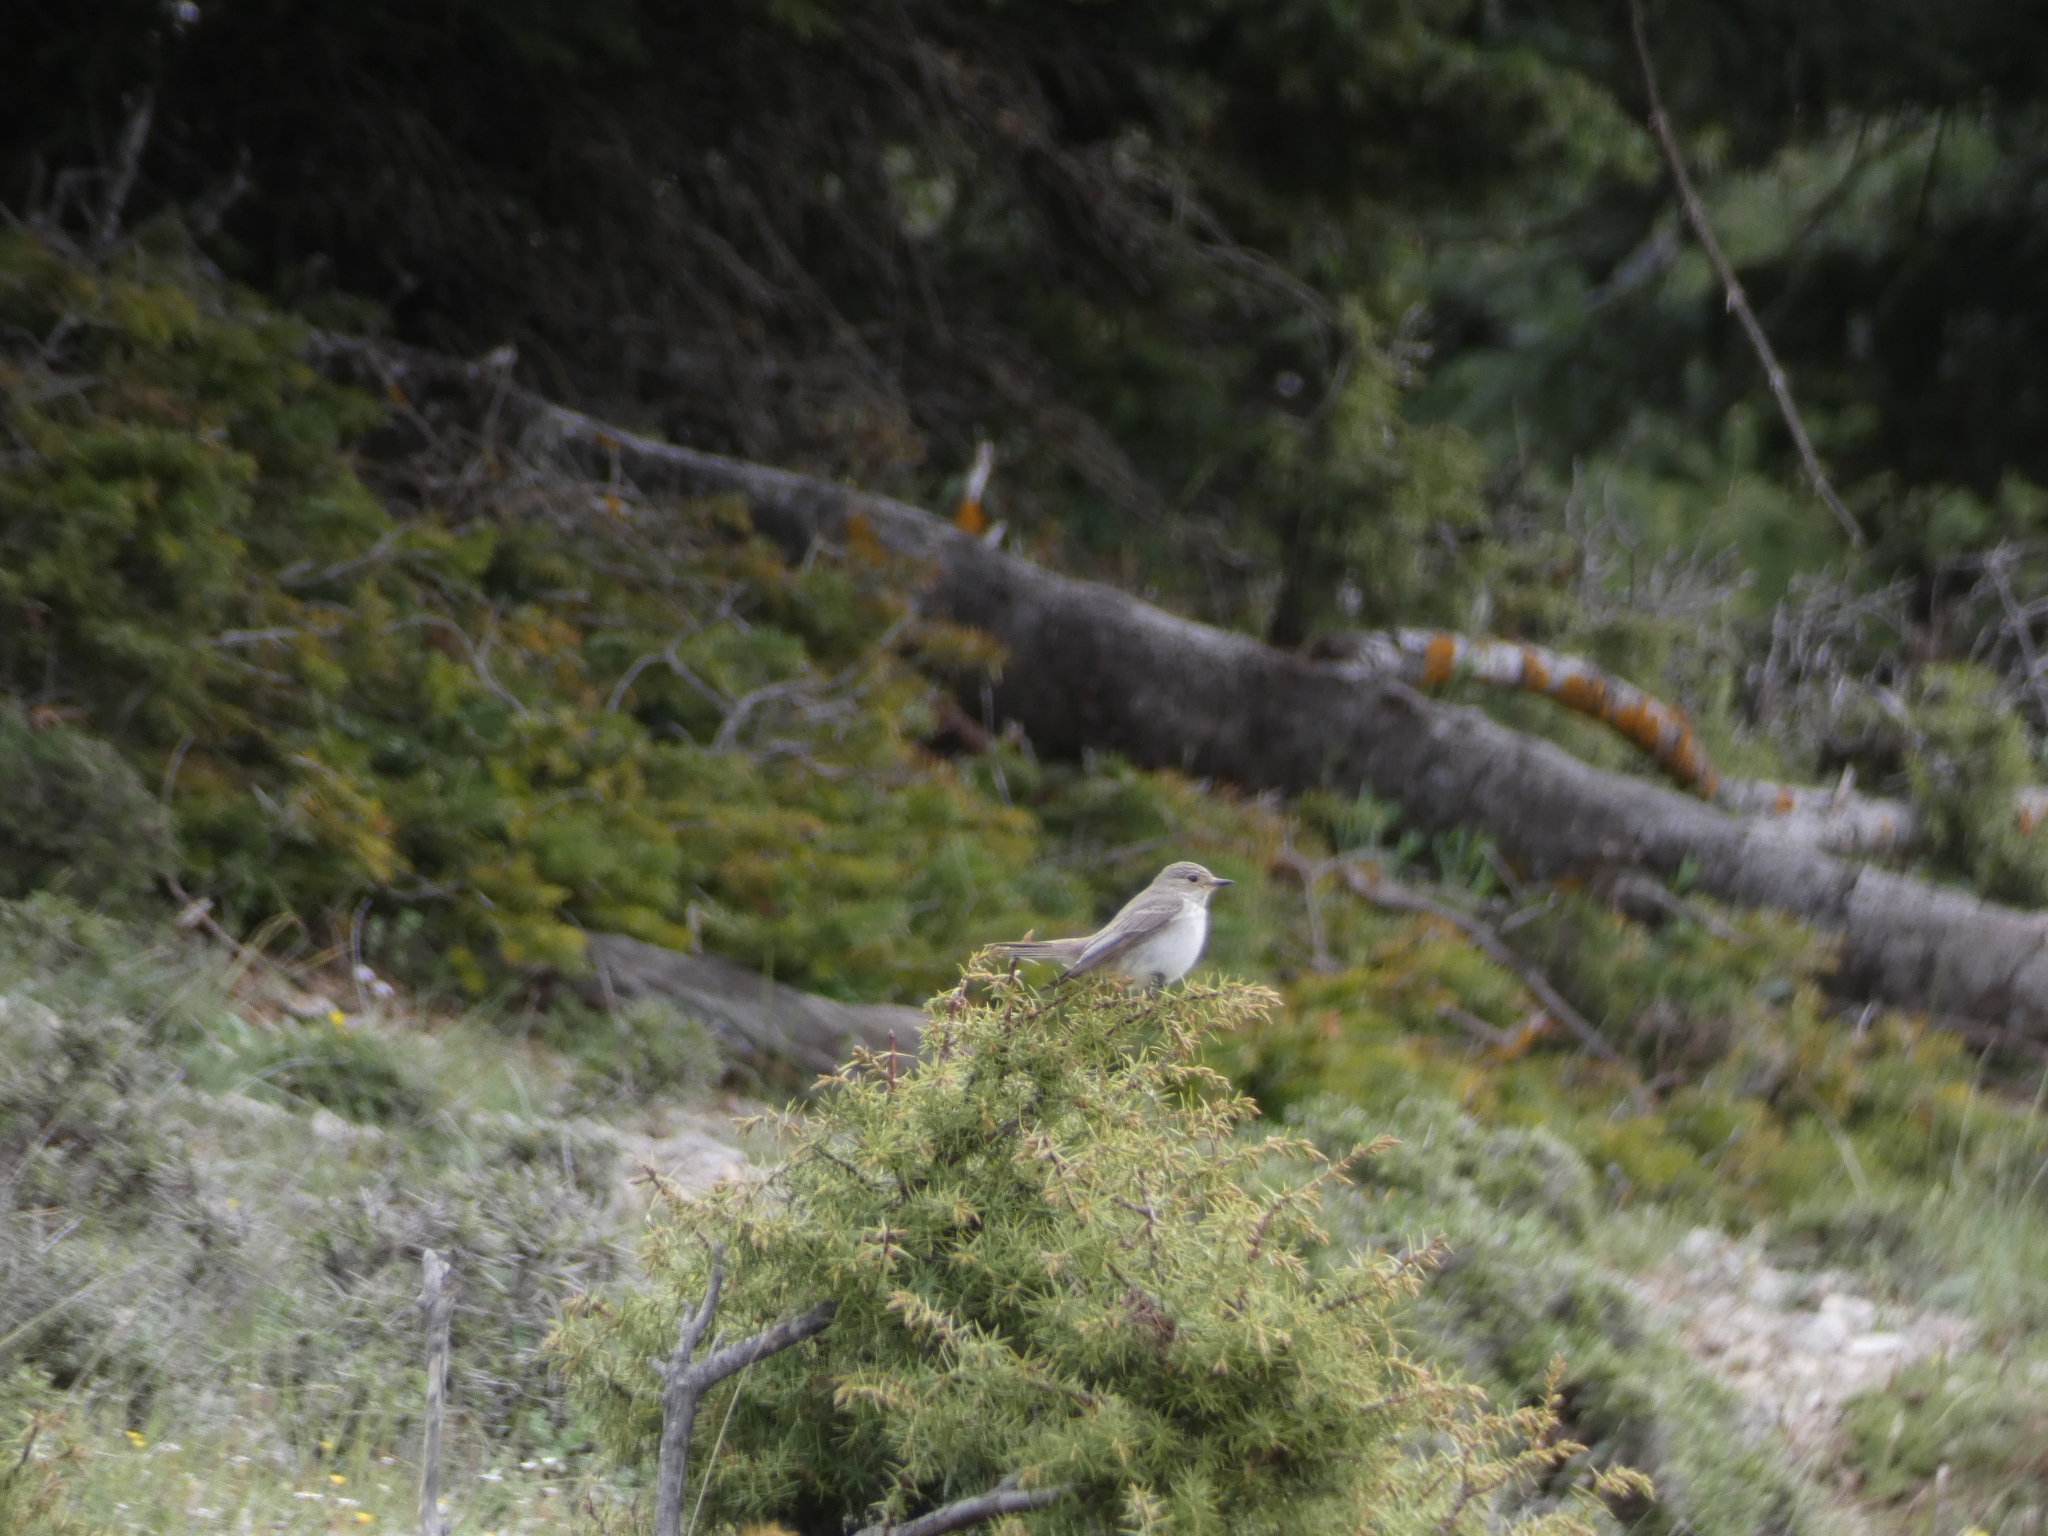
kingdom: Animalia
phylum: Chordata
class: Aves
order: Passeriformes
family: Muscicapidae
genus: Muscicapa
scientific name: Muscicapa striata
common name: Spotted flycatcher
